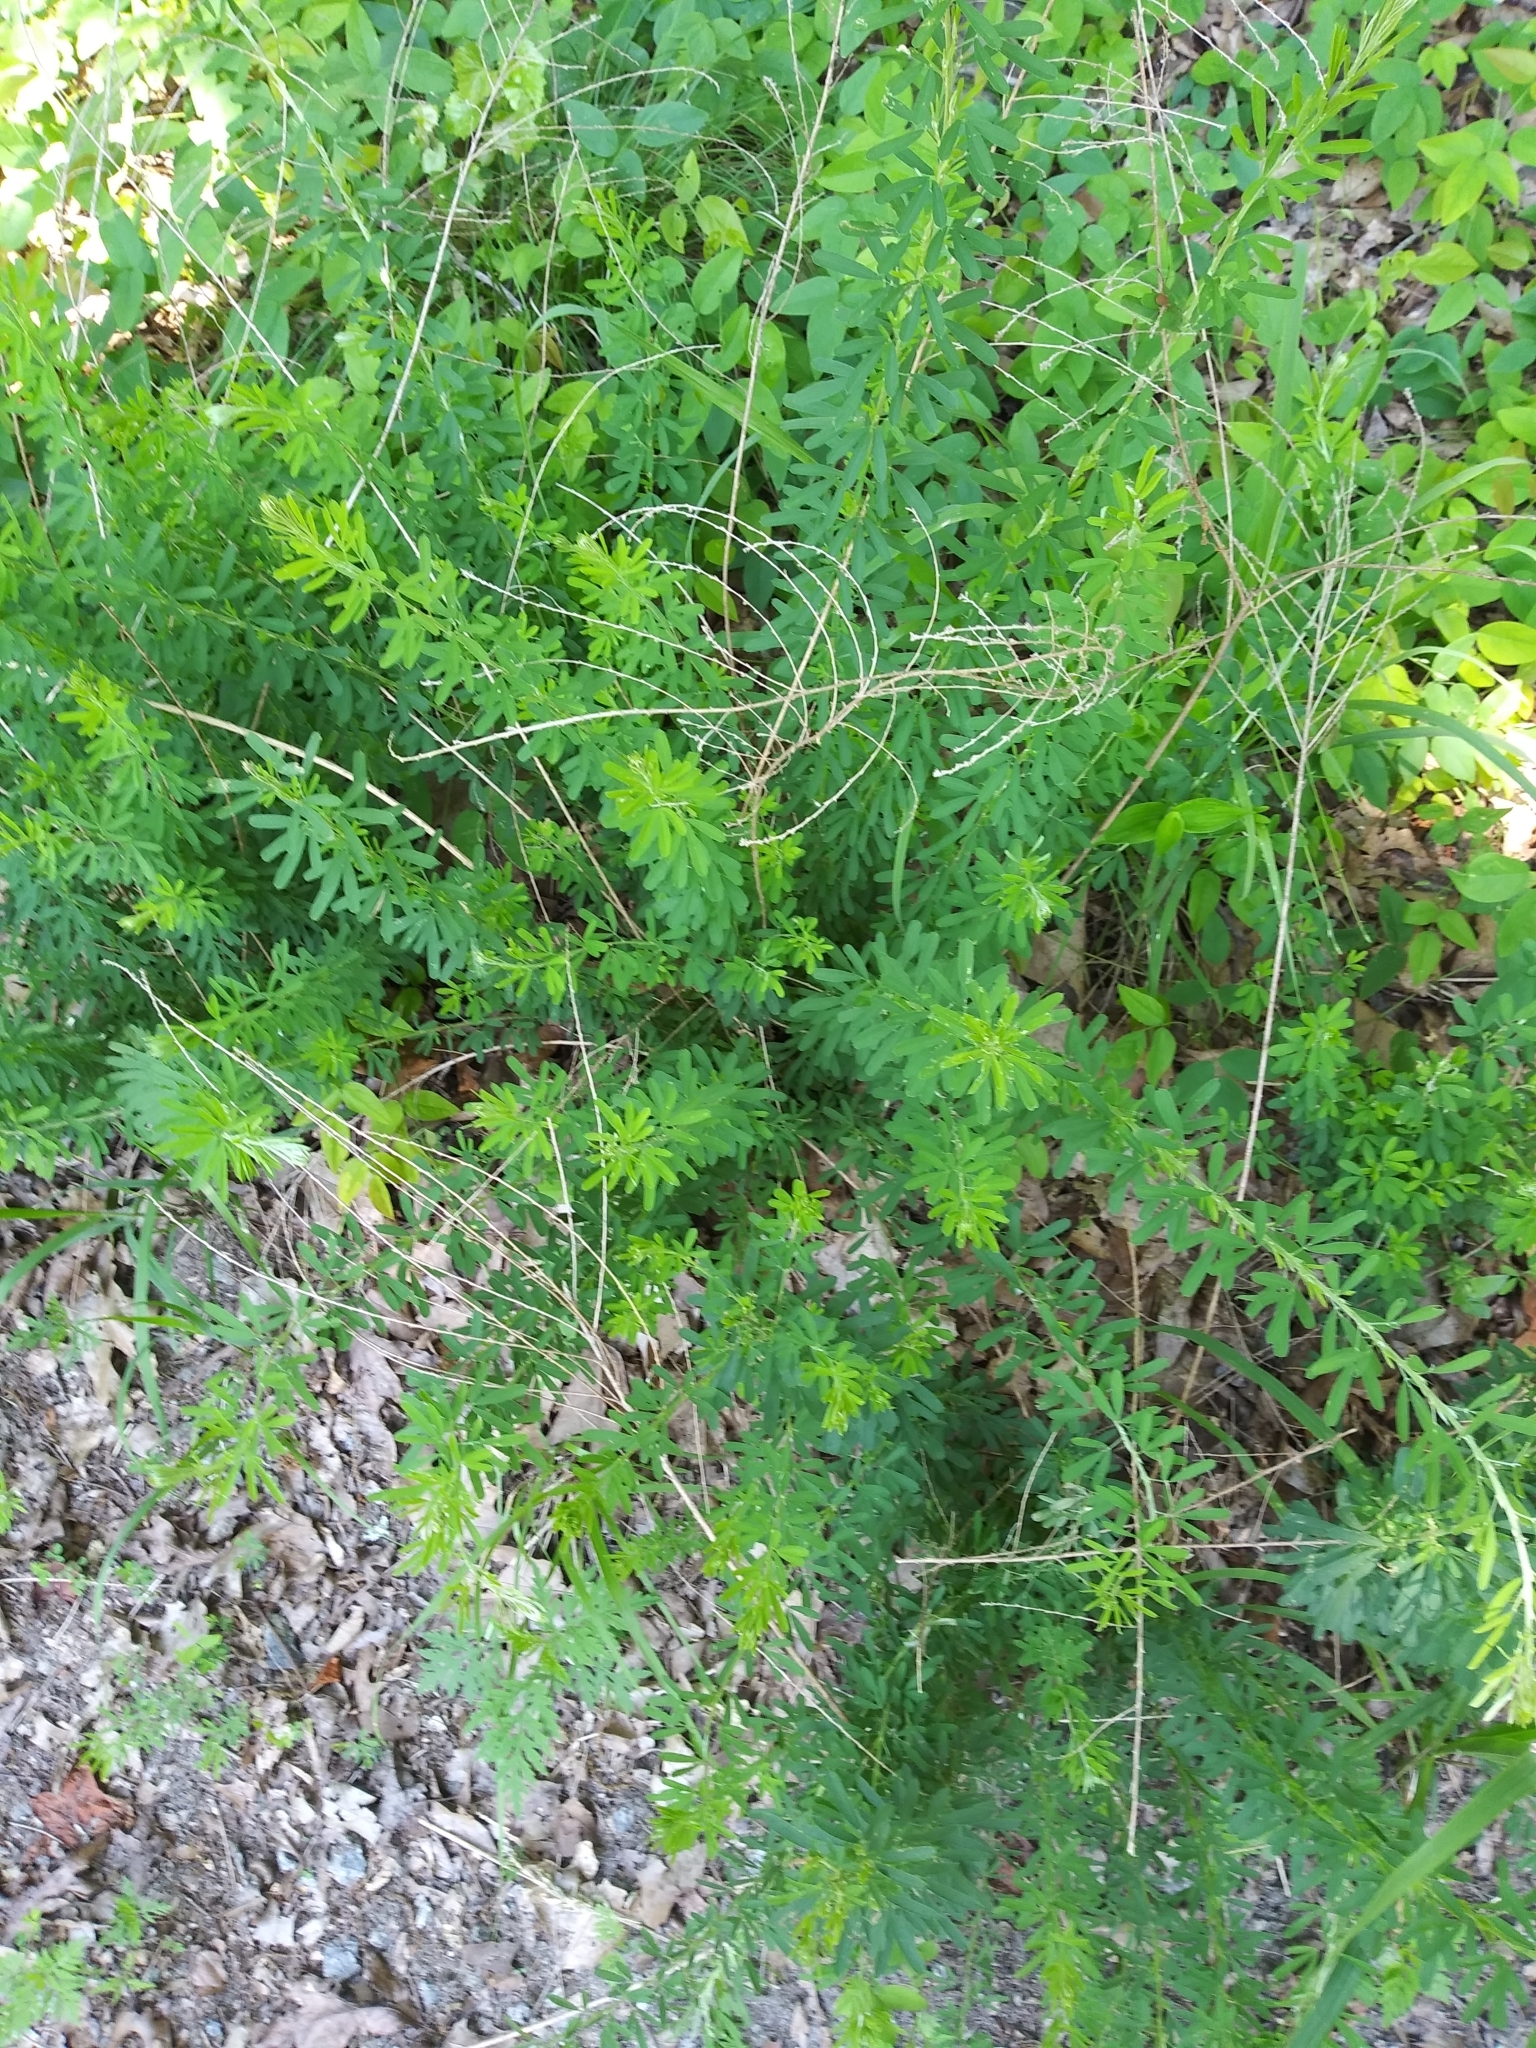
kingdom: Plantae
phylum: Tracheophyta
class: Magnoliopsida
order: Fabales
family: Fabaceae
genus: Lespedeza
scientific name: Lespedeza cuneata
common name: Chinese bush-clover
